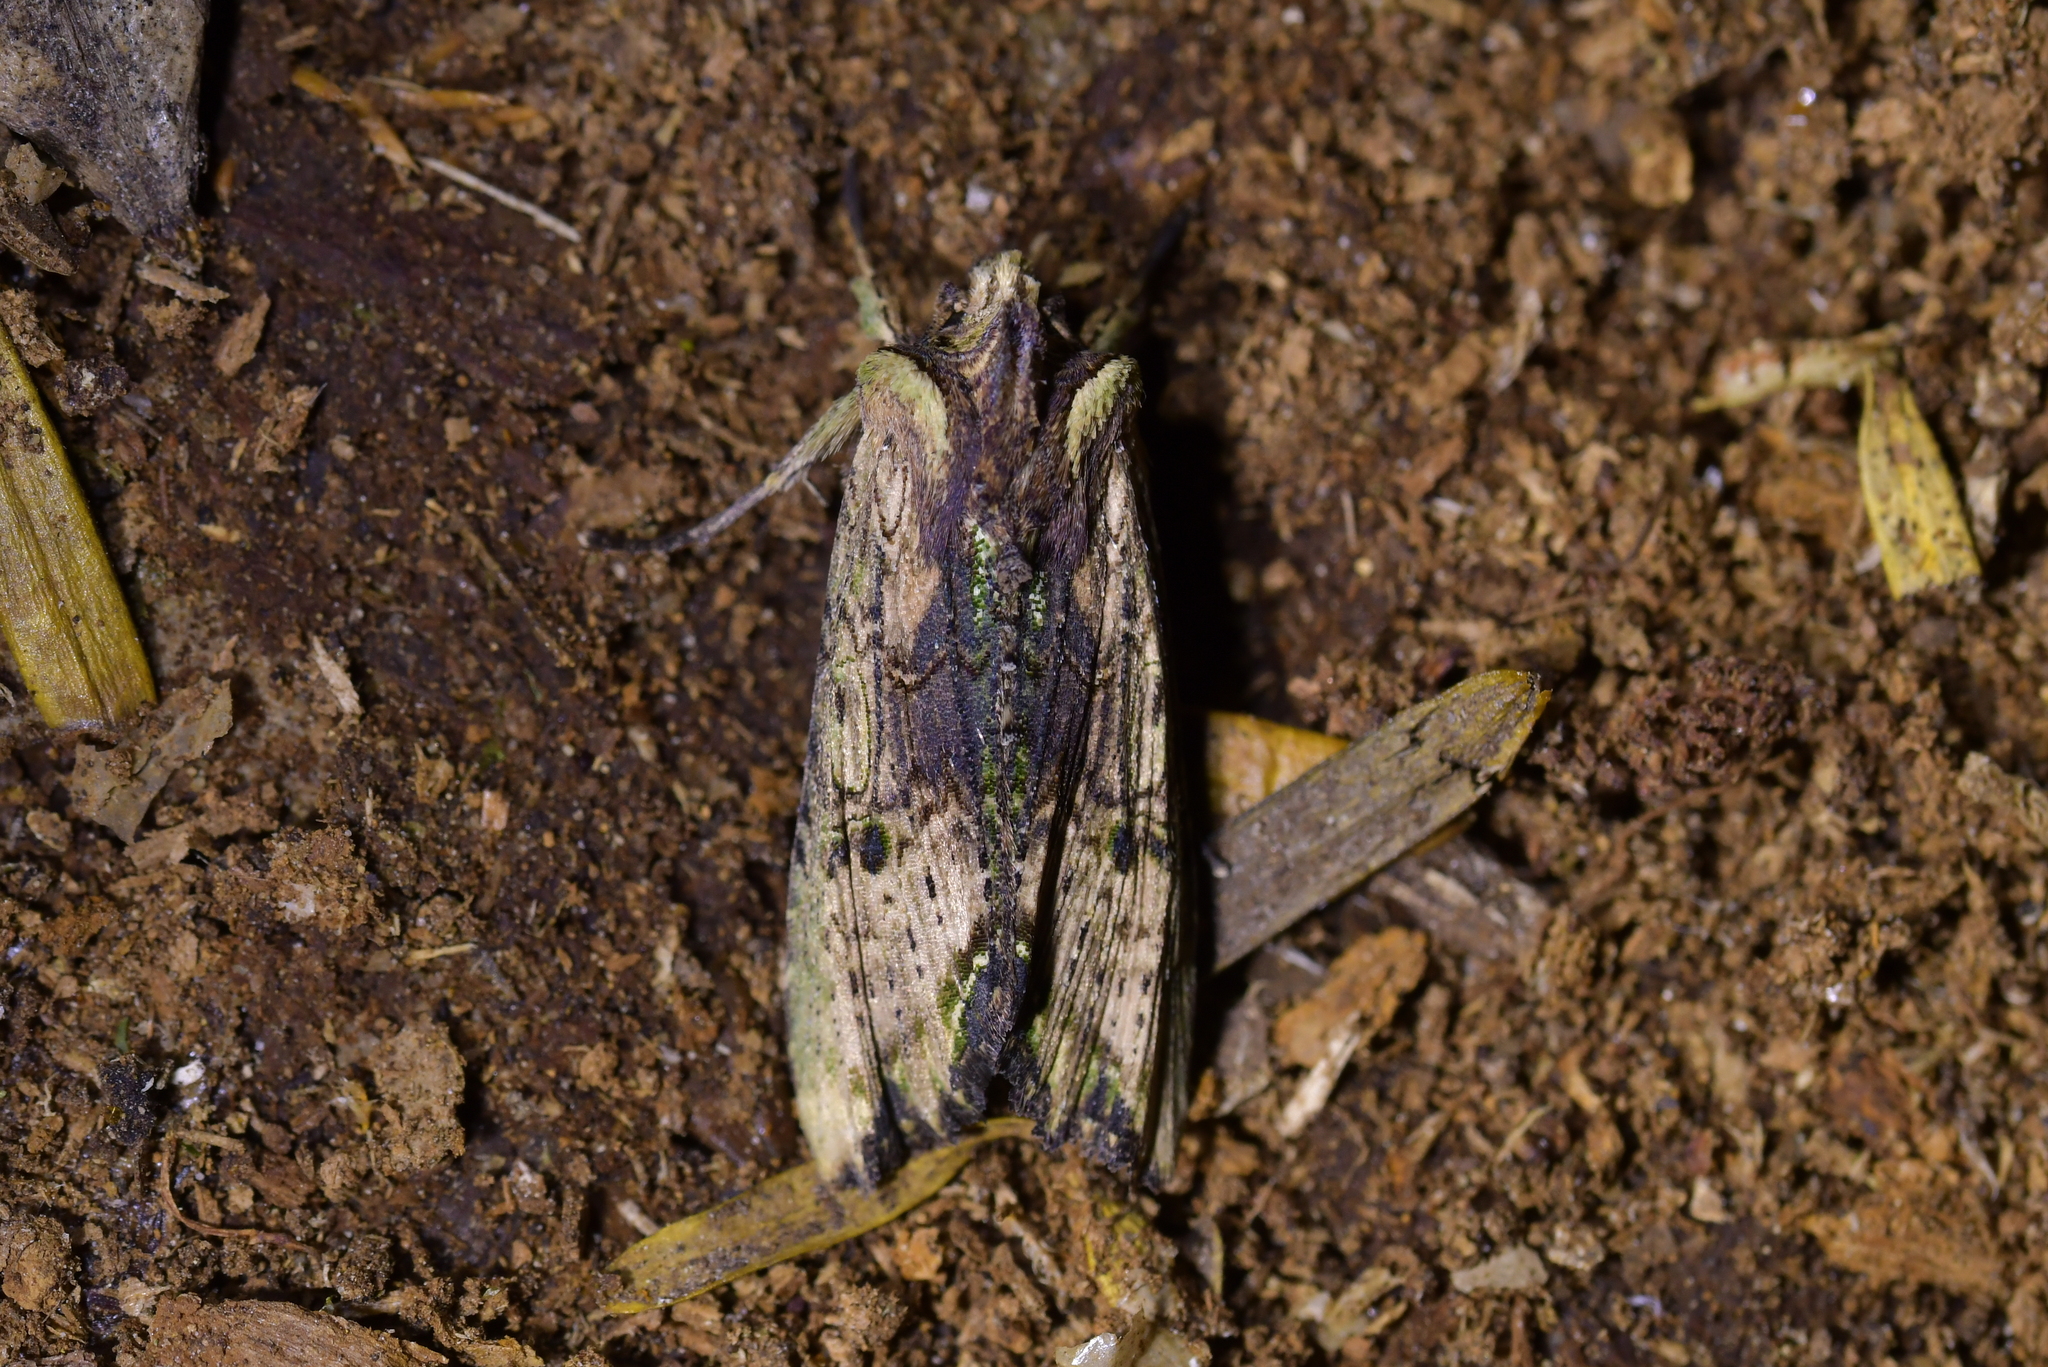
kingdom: Animalia
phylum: Arthropoda
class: Insecta
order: Lepidoptera
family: Noctuidae
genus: Meterana
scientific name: Meterana coeleno
